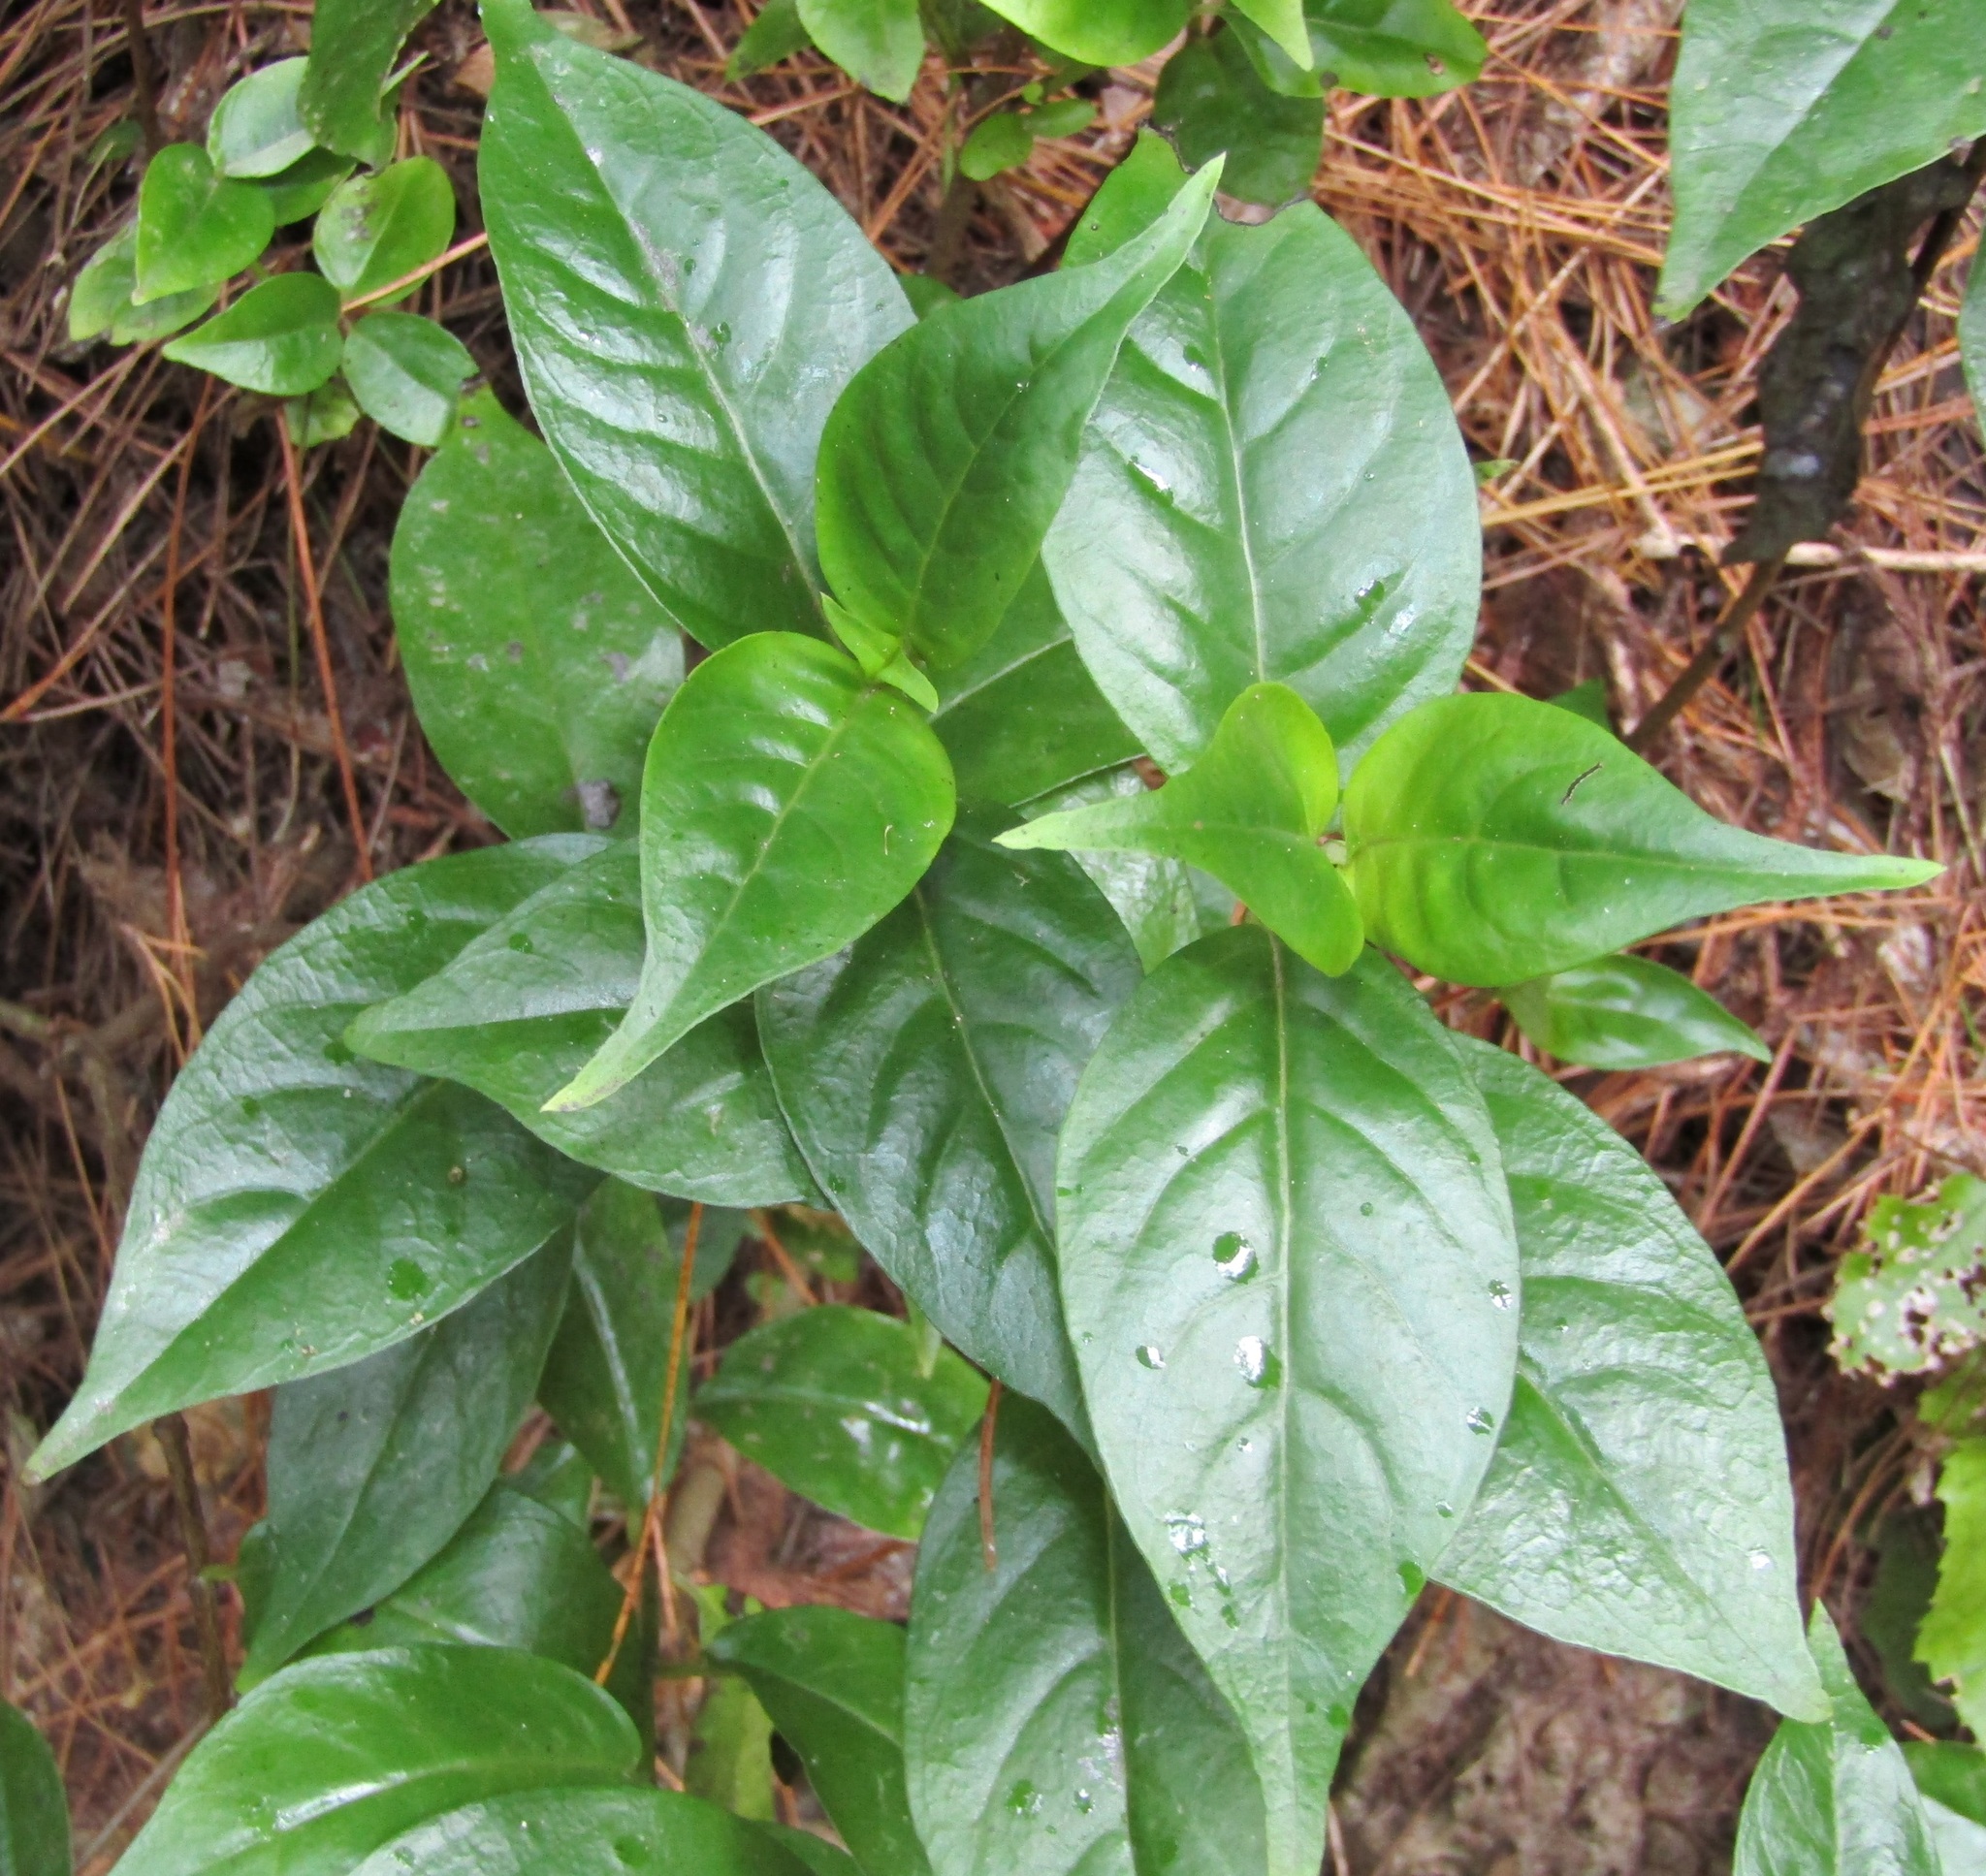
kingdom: Plantae
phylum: Tracheophyta
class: Magnoliopsida
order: Gentianales
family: Loganiaceae
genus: Geniostoma
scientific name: Geniostoma ligustrifolium
